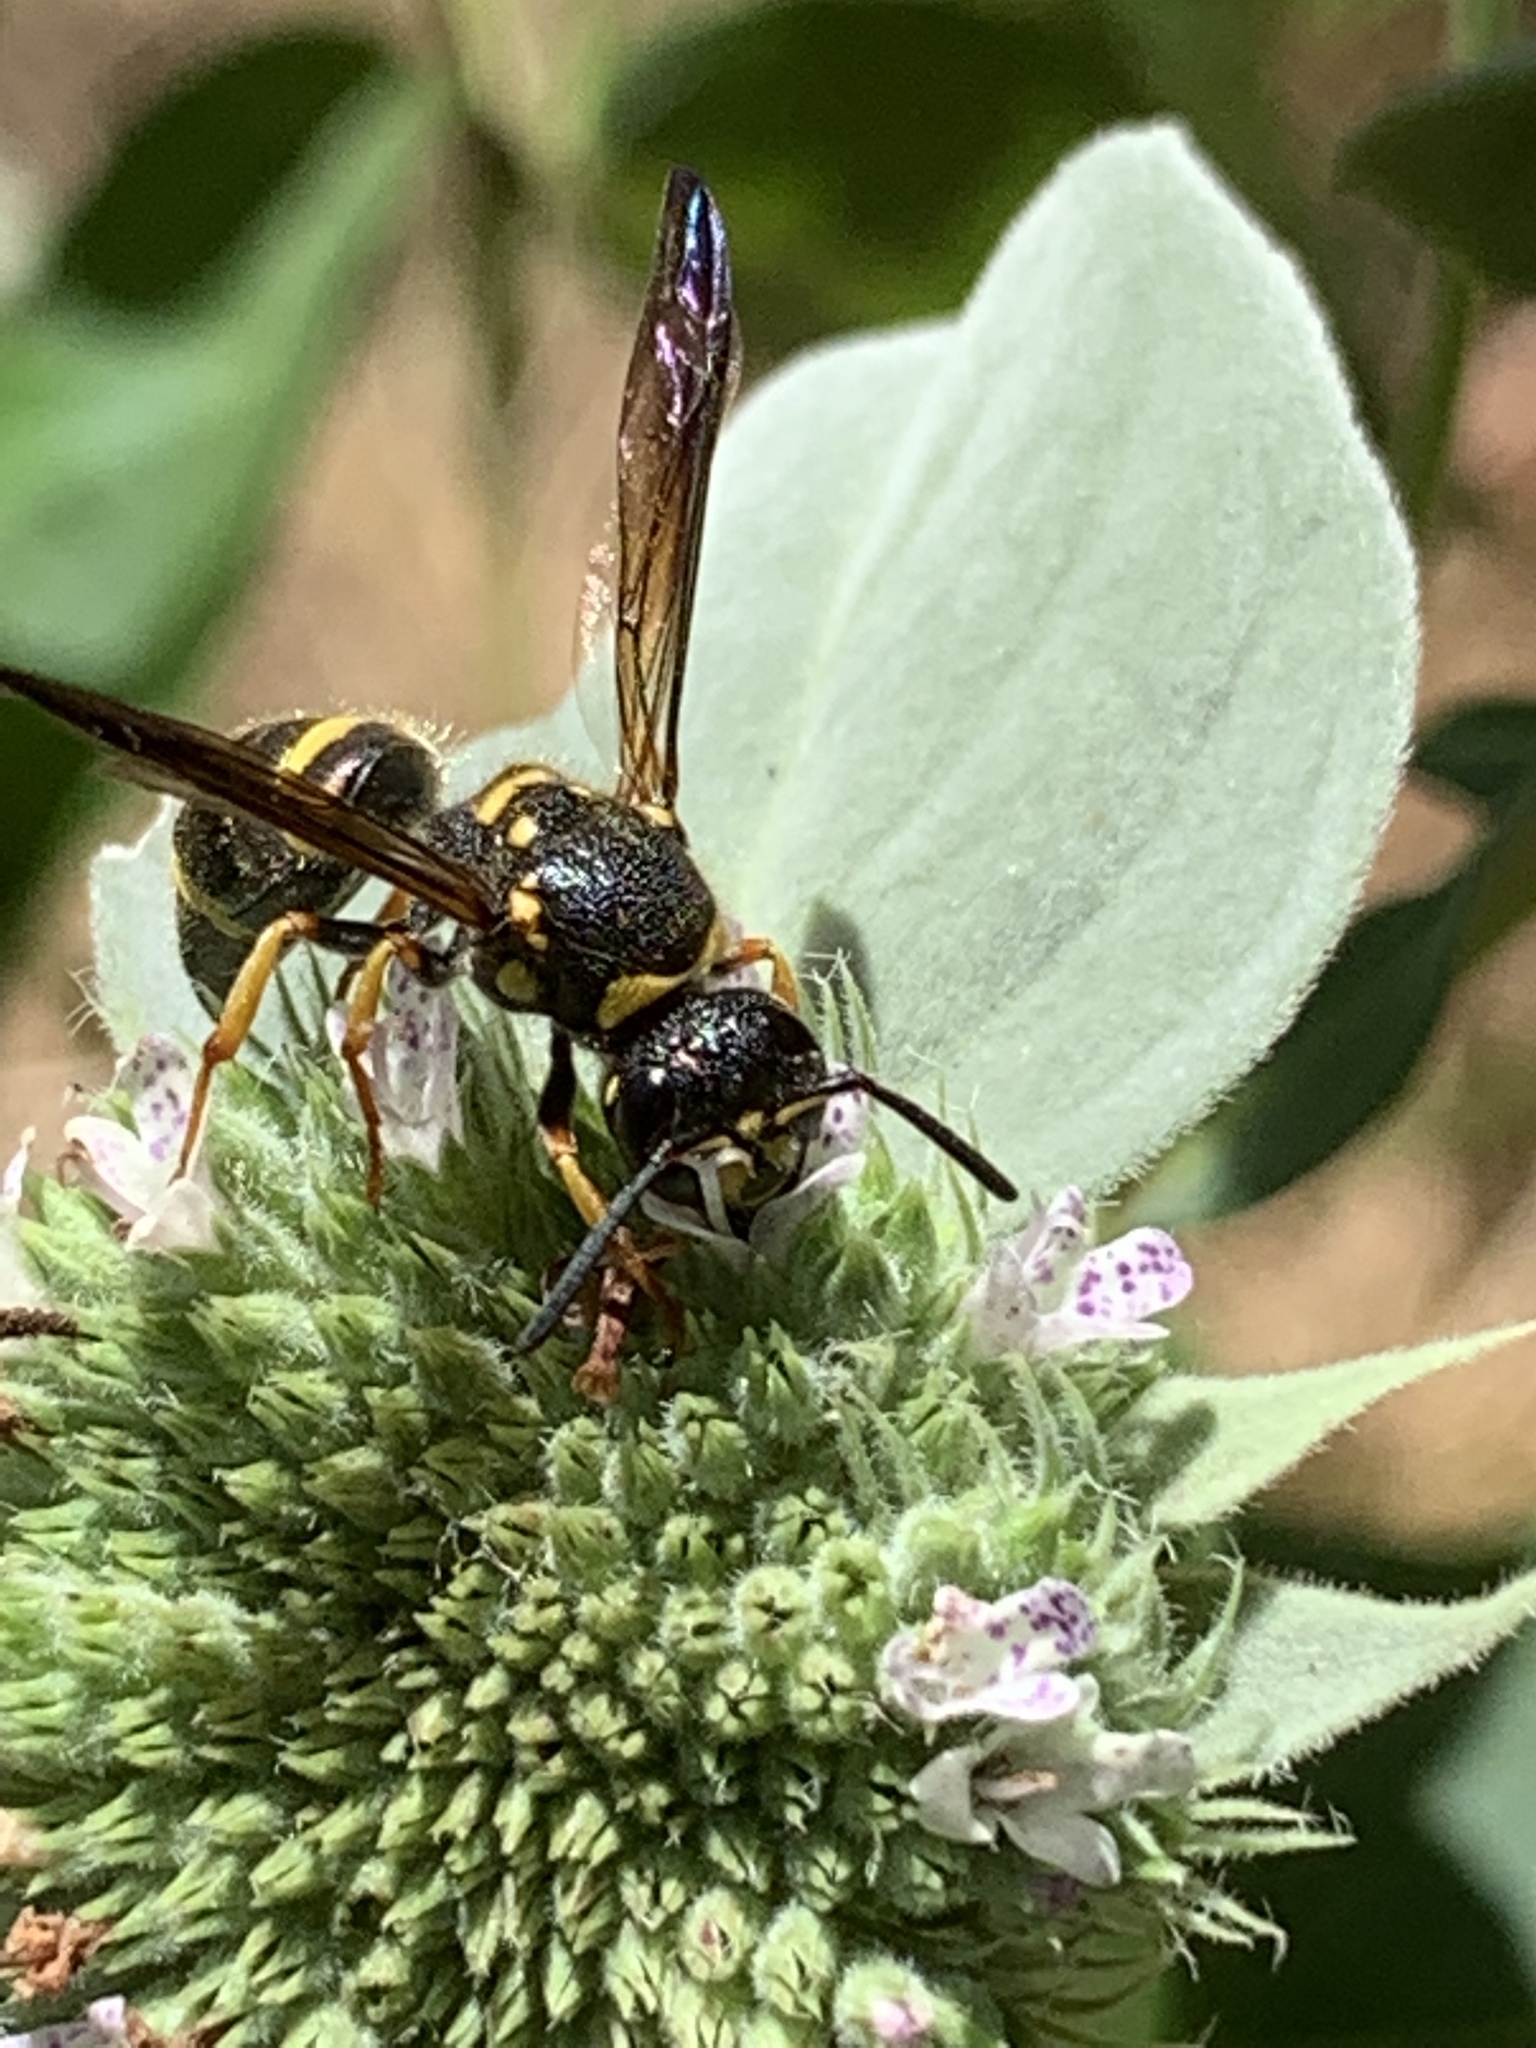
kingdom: Animalia
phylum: Arthropoda
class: Insecta
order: Hymenoptera
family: Vespidae
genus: Ancistrocerus
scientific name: Ancistrocerus campestris
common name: Smiling mason wasp
